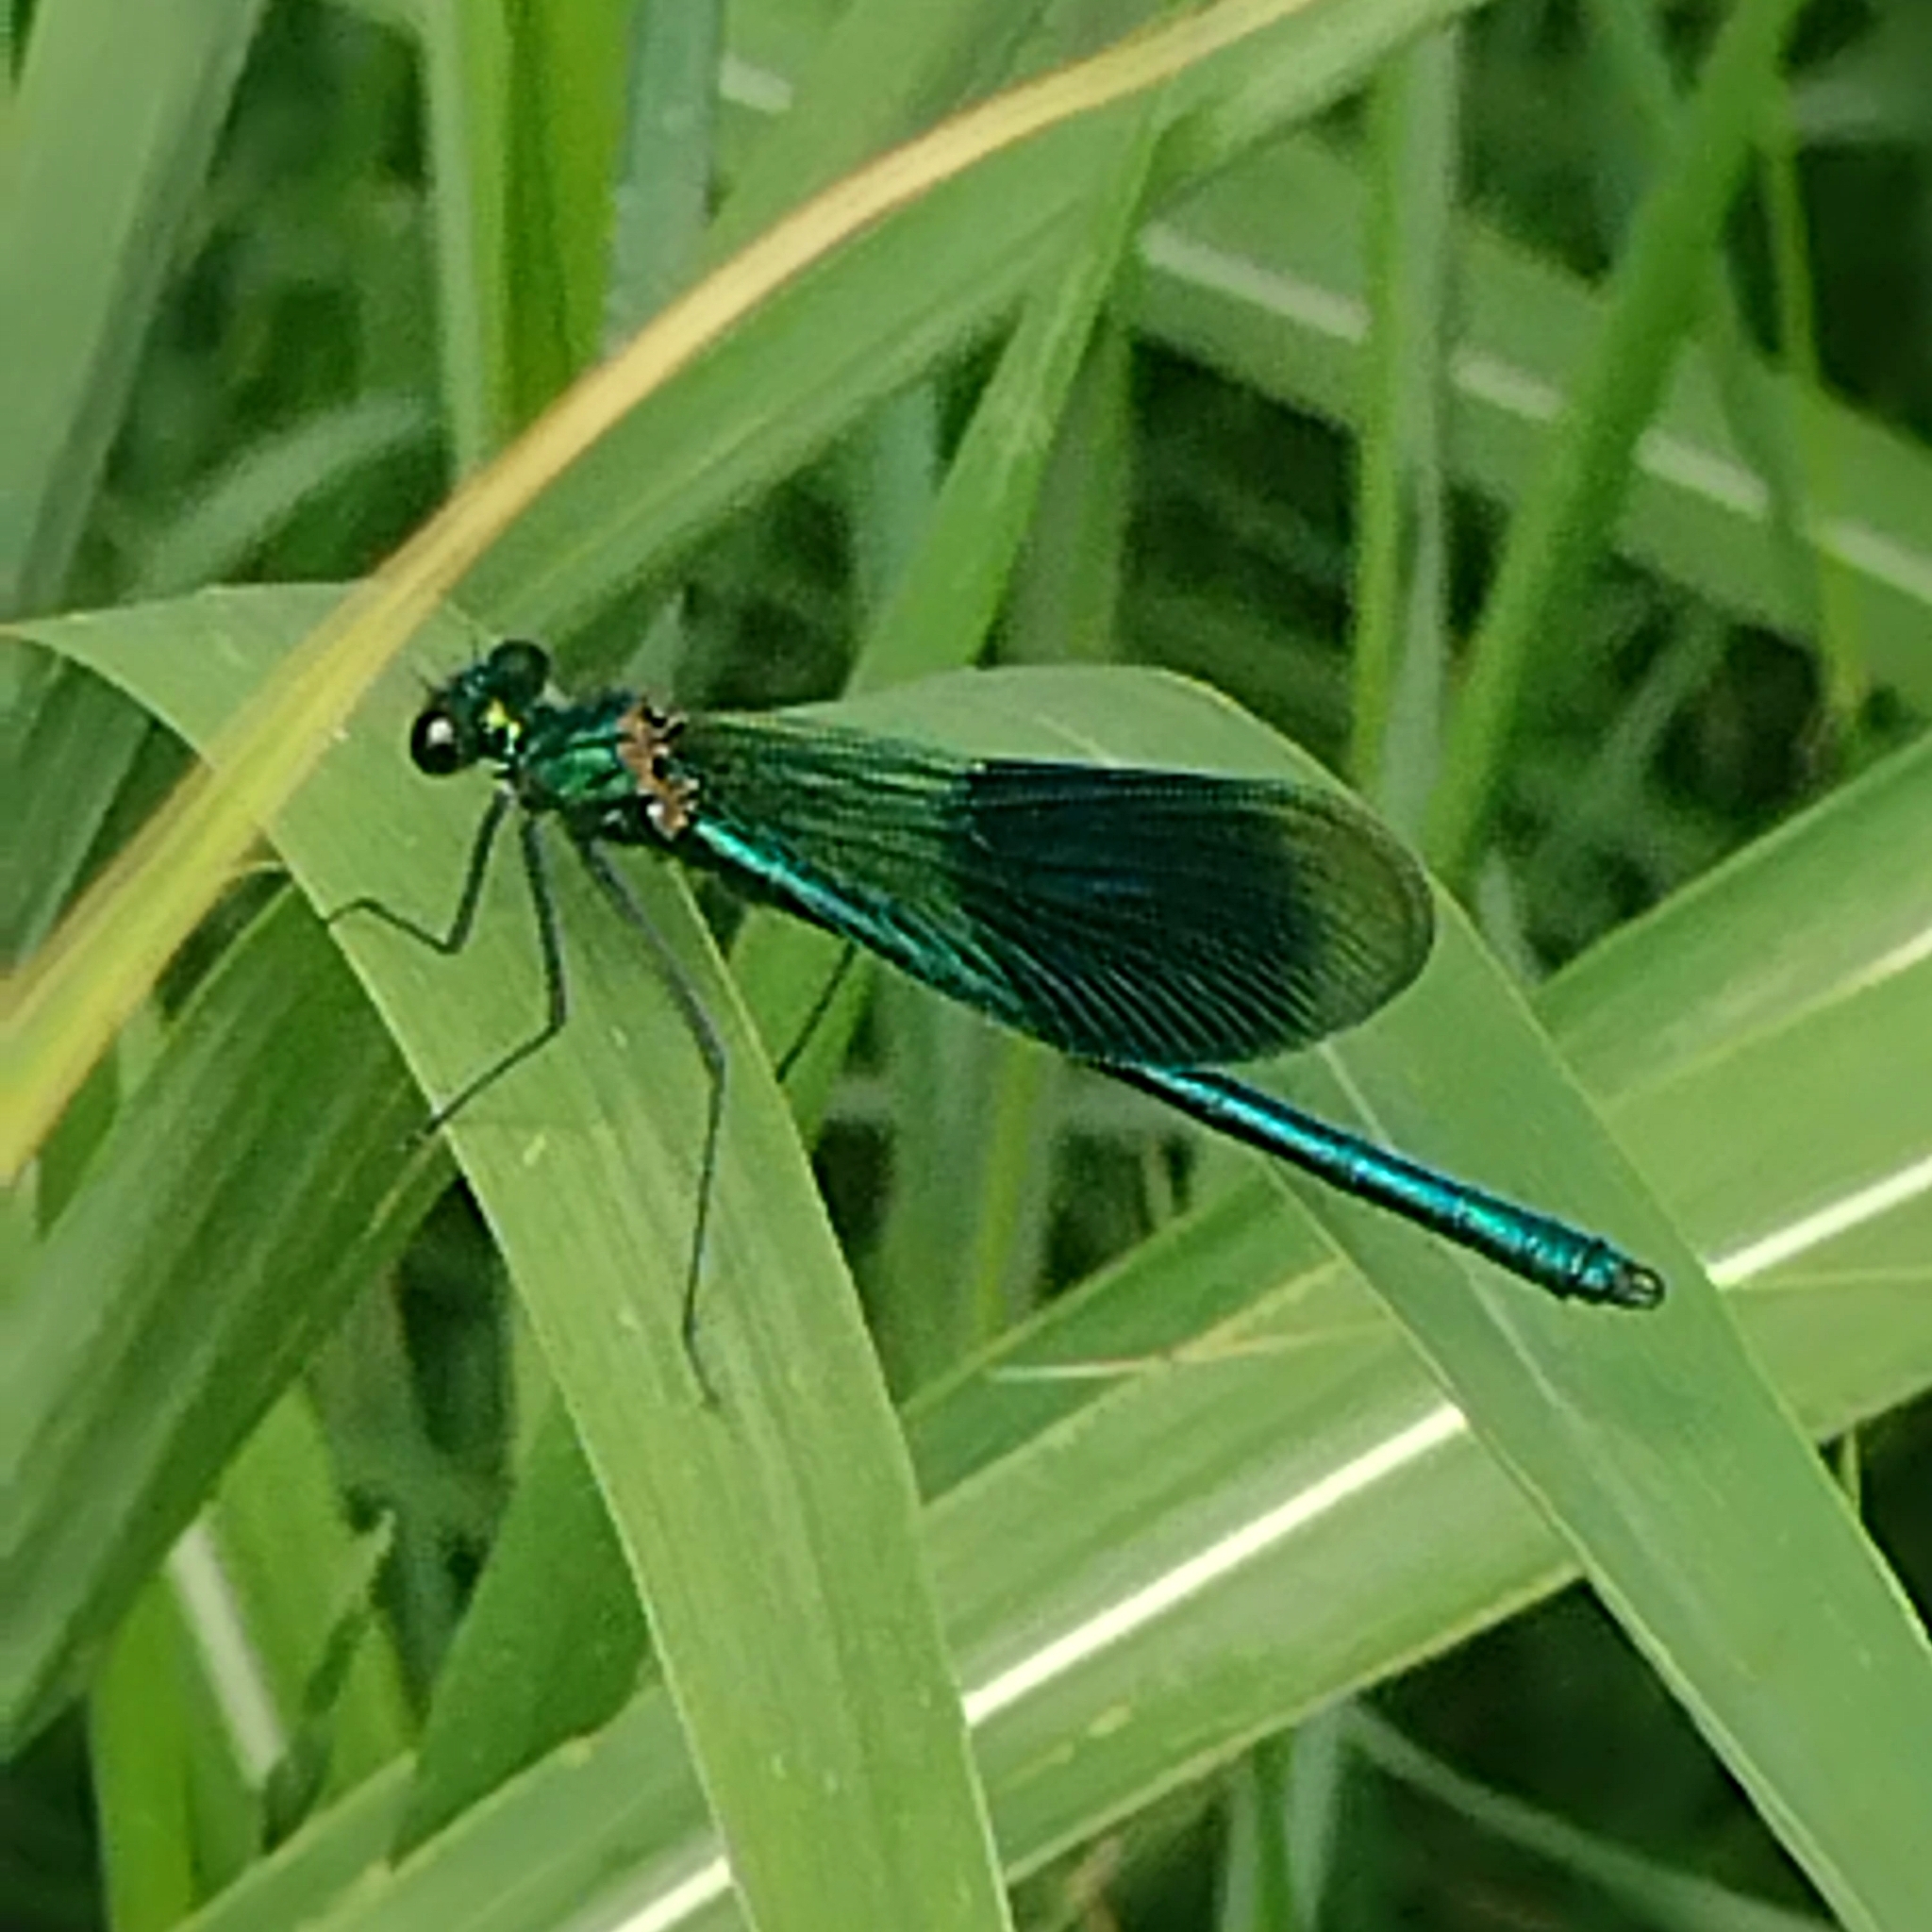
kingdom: Animalia
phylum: Arthropoda
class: Insecta
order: Odonata
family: Calopterygidae
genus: Calopteryx
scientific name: Calopteryx splendens
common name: Banded demoiselle
